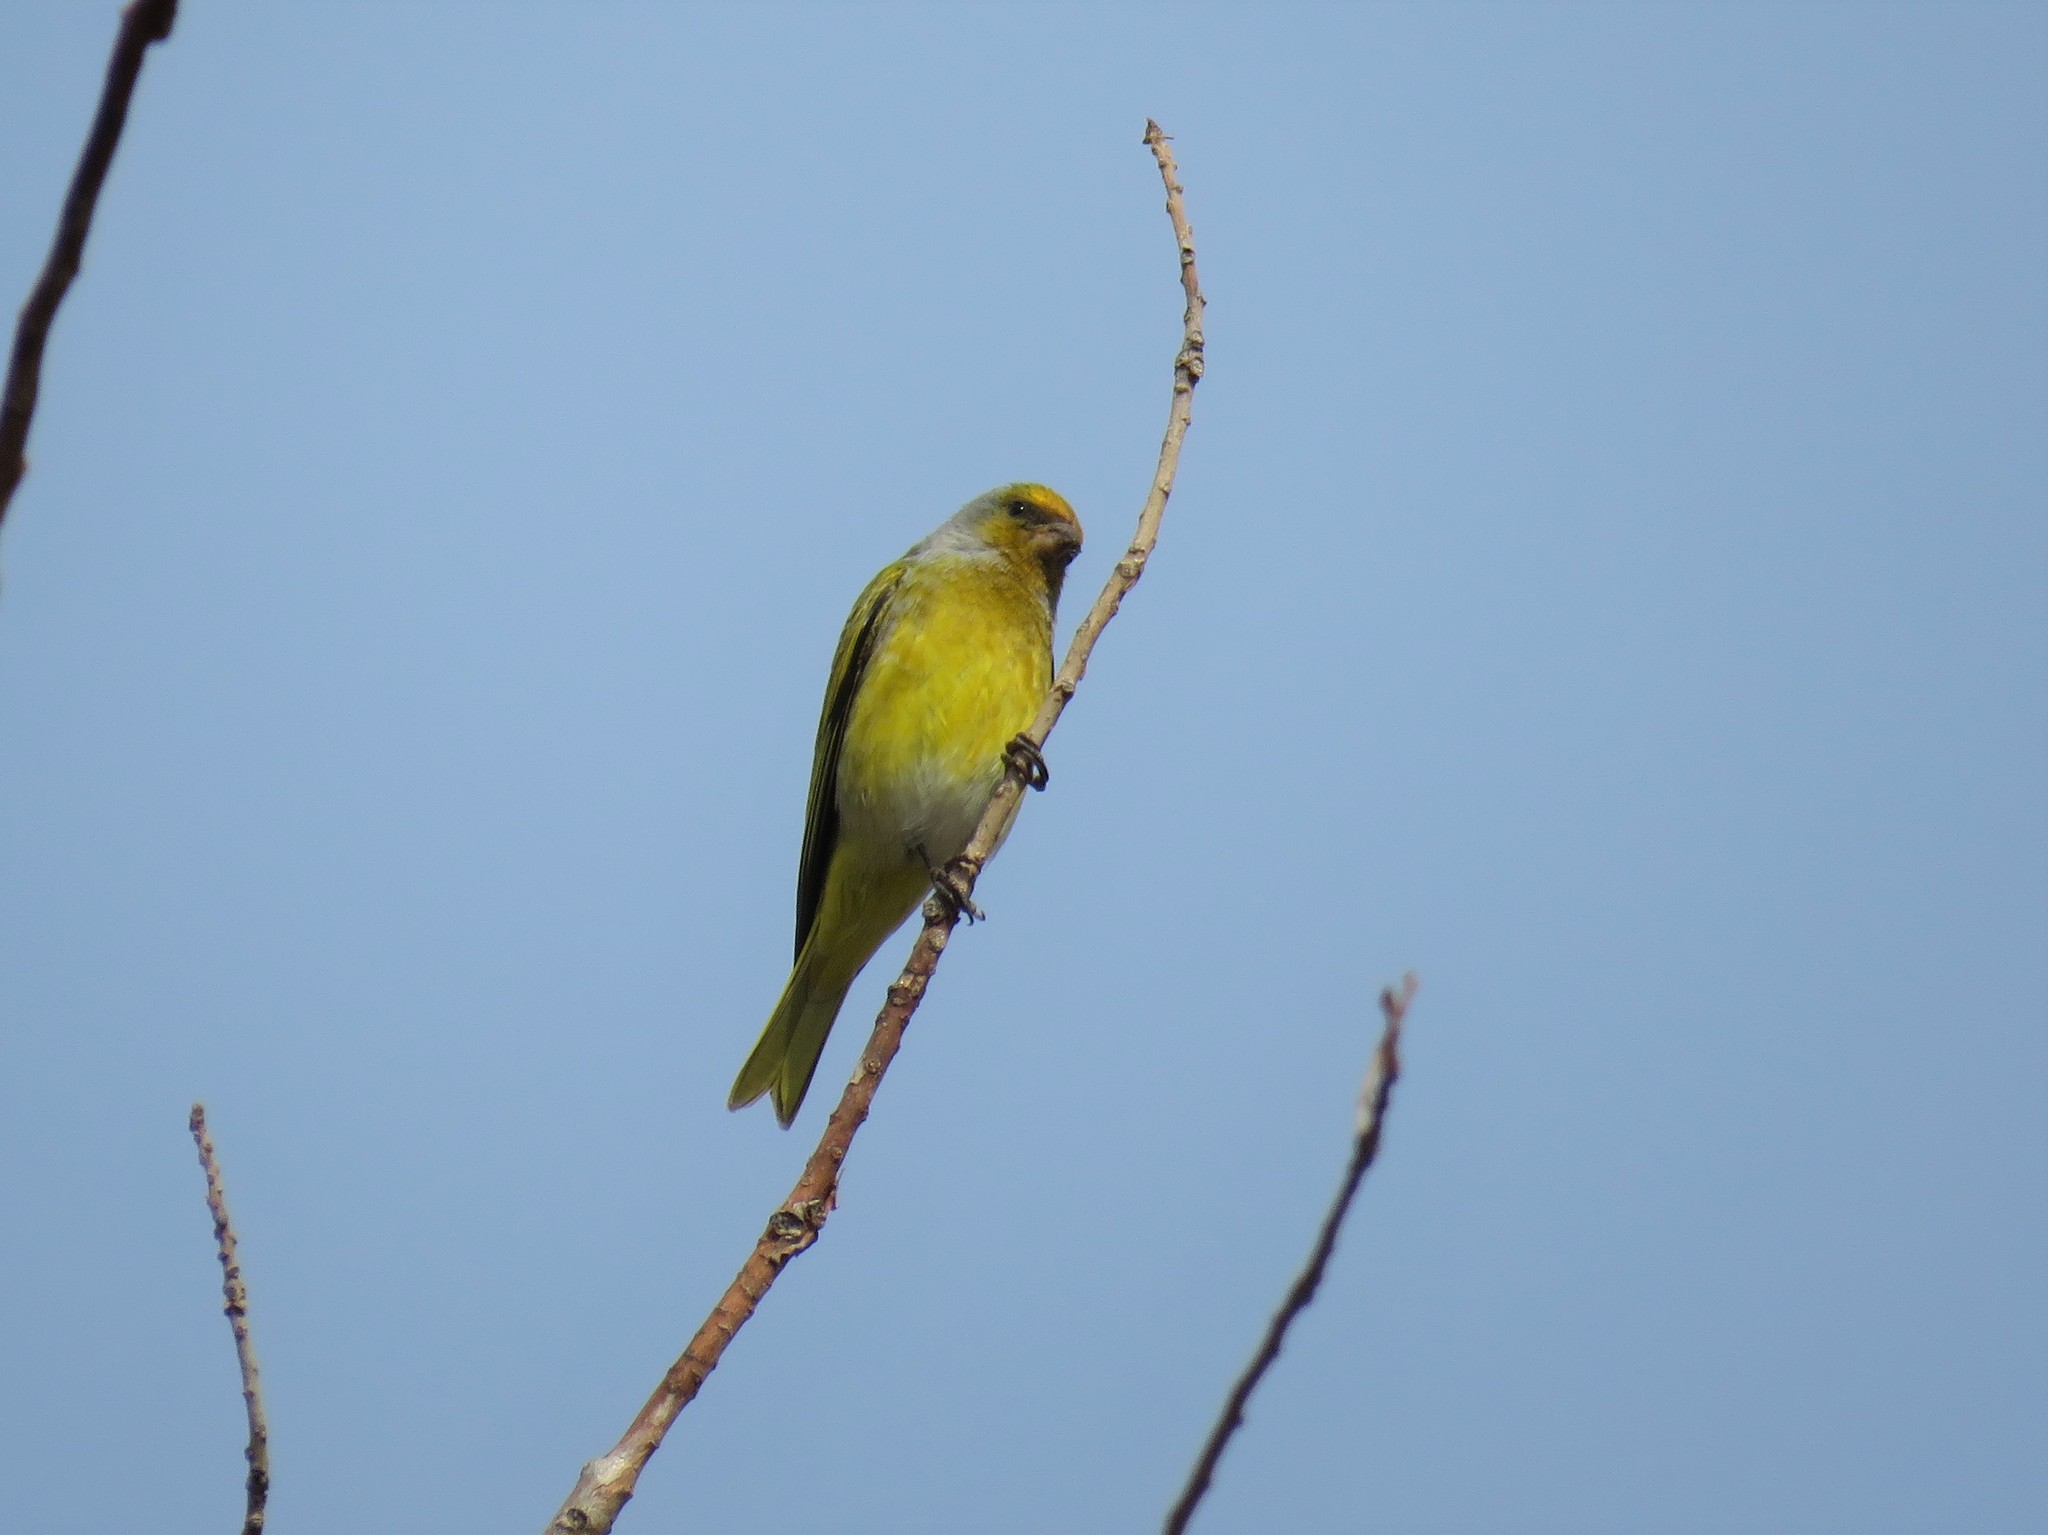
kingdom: Animalia
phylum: Chordata
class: Aves
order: Passeriformes
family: Fringillidae
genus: Serinus
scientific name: Serinus canicollis
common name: Cape canary
